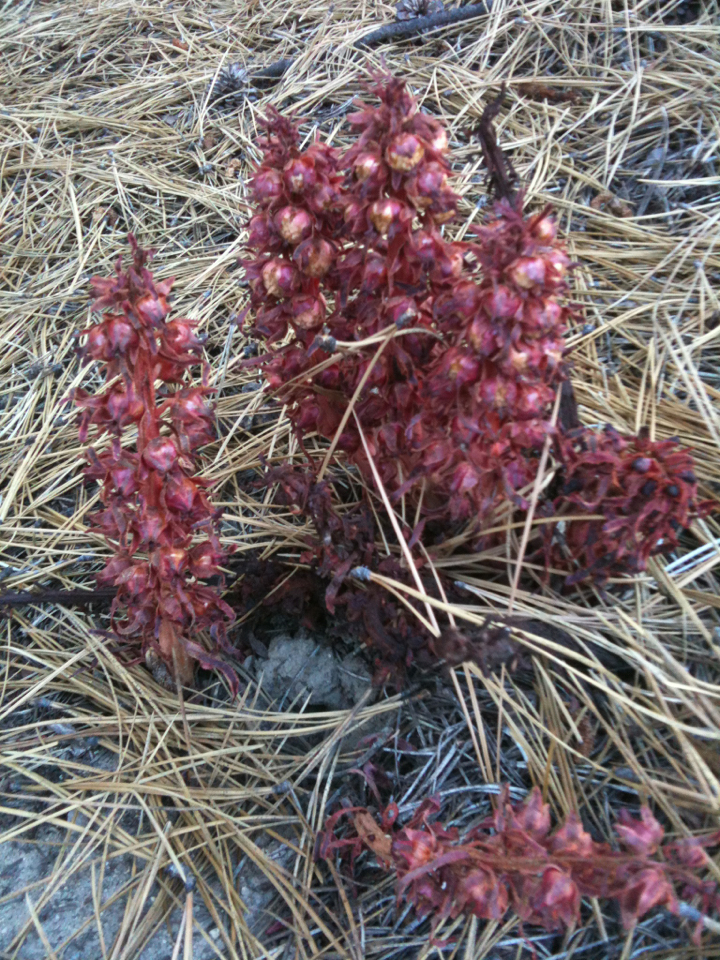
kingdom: Plantae
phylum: Tracheophyta
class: Magnoliopsida
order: Ericales
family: Ericaceae
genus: Sarcodes
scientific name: Sarcodes sanguinea
